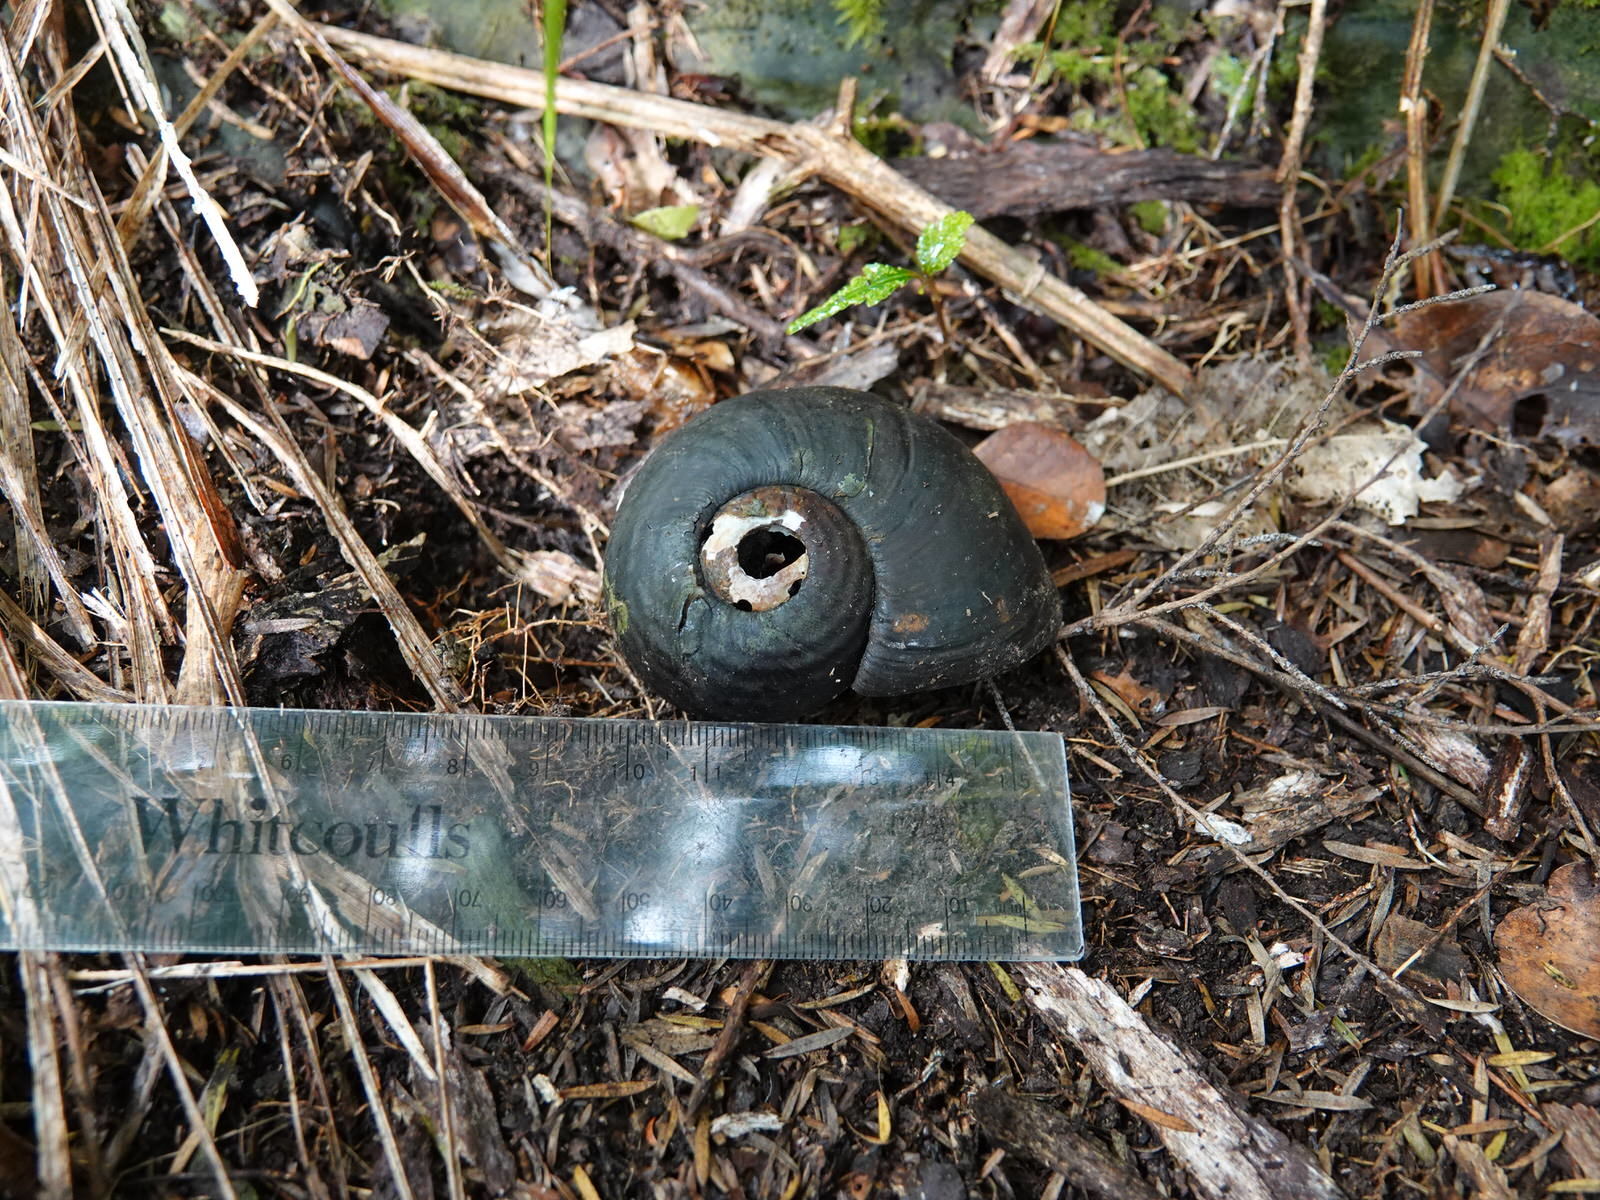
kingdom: Animalia
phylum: Mollusca
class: Gastropoda
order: Stylommatophora
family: Rhytididae
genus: Paryphanta
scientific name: Paryphanta busbyi
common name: Kauri snail
